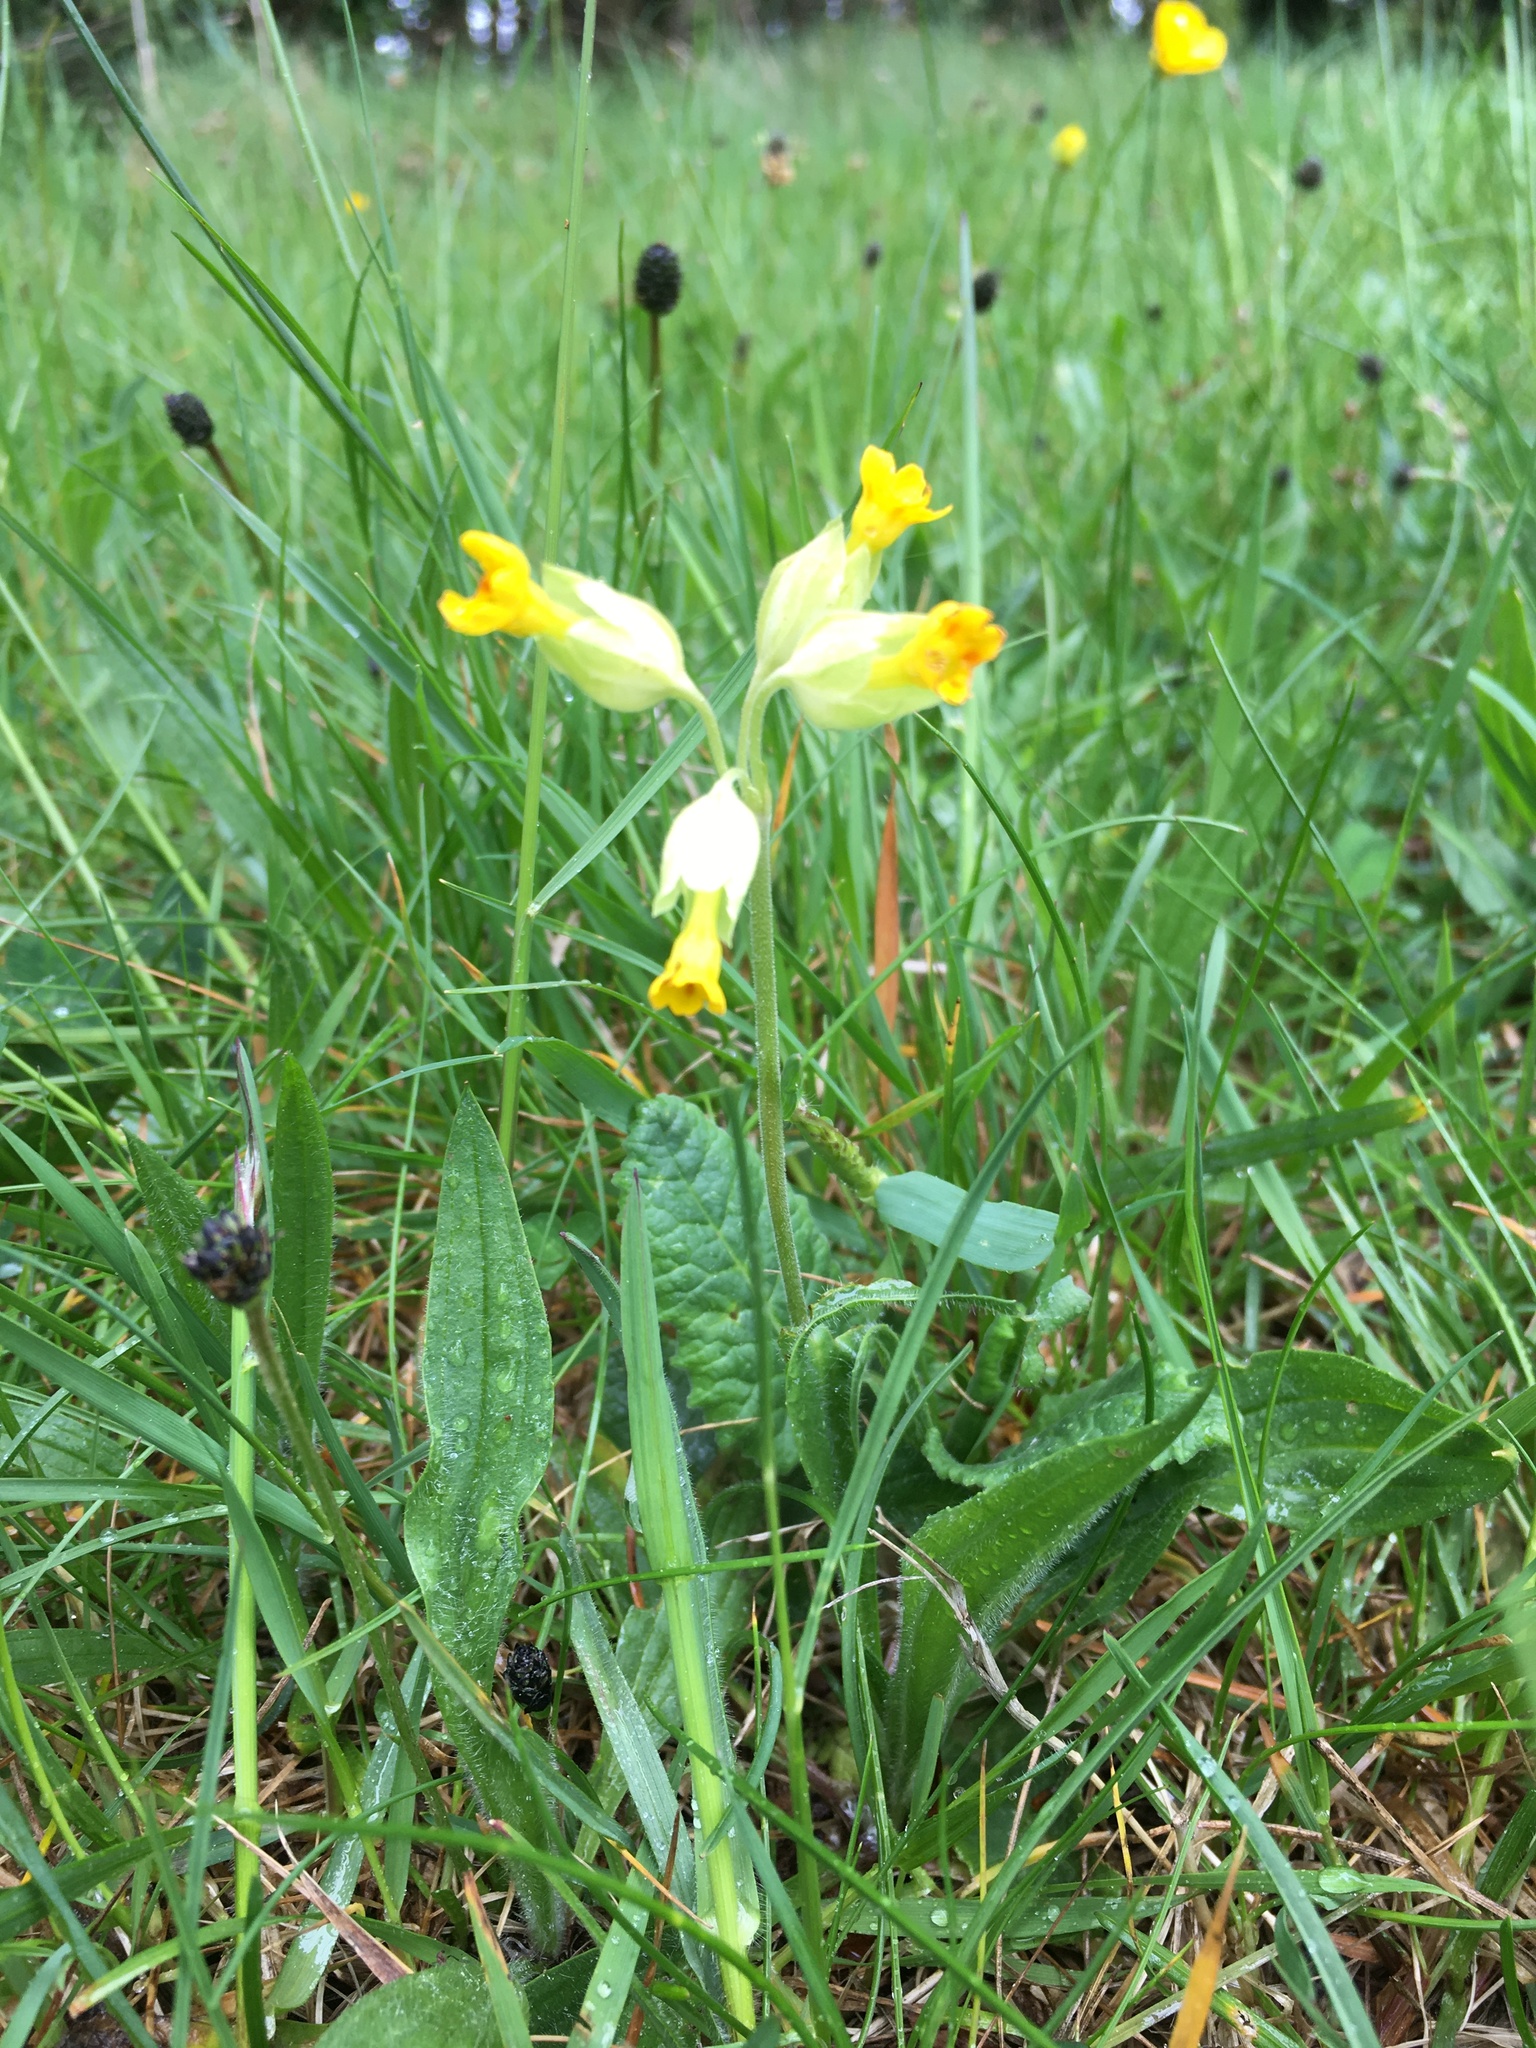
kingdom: Plantae
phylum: Tracheophyta
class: Magnoliopsida
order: Ericales
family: Primulaceae
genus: Primula
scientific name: Primula veris
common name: Cowslip
